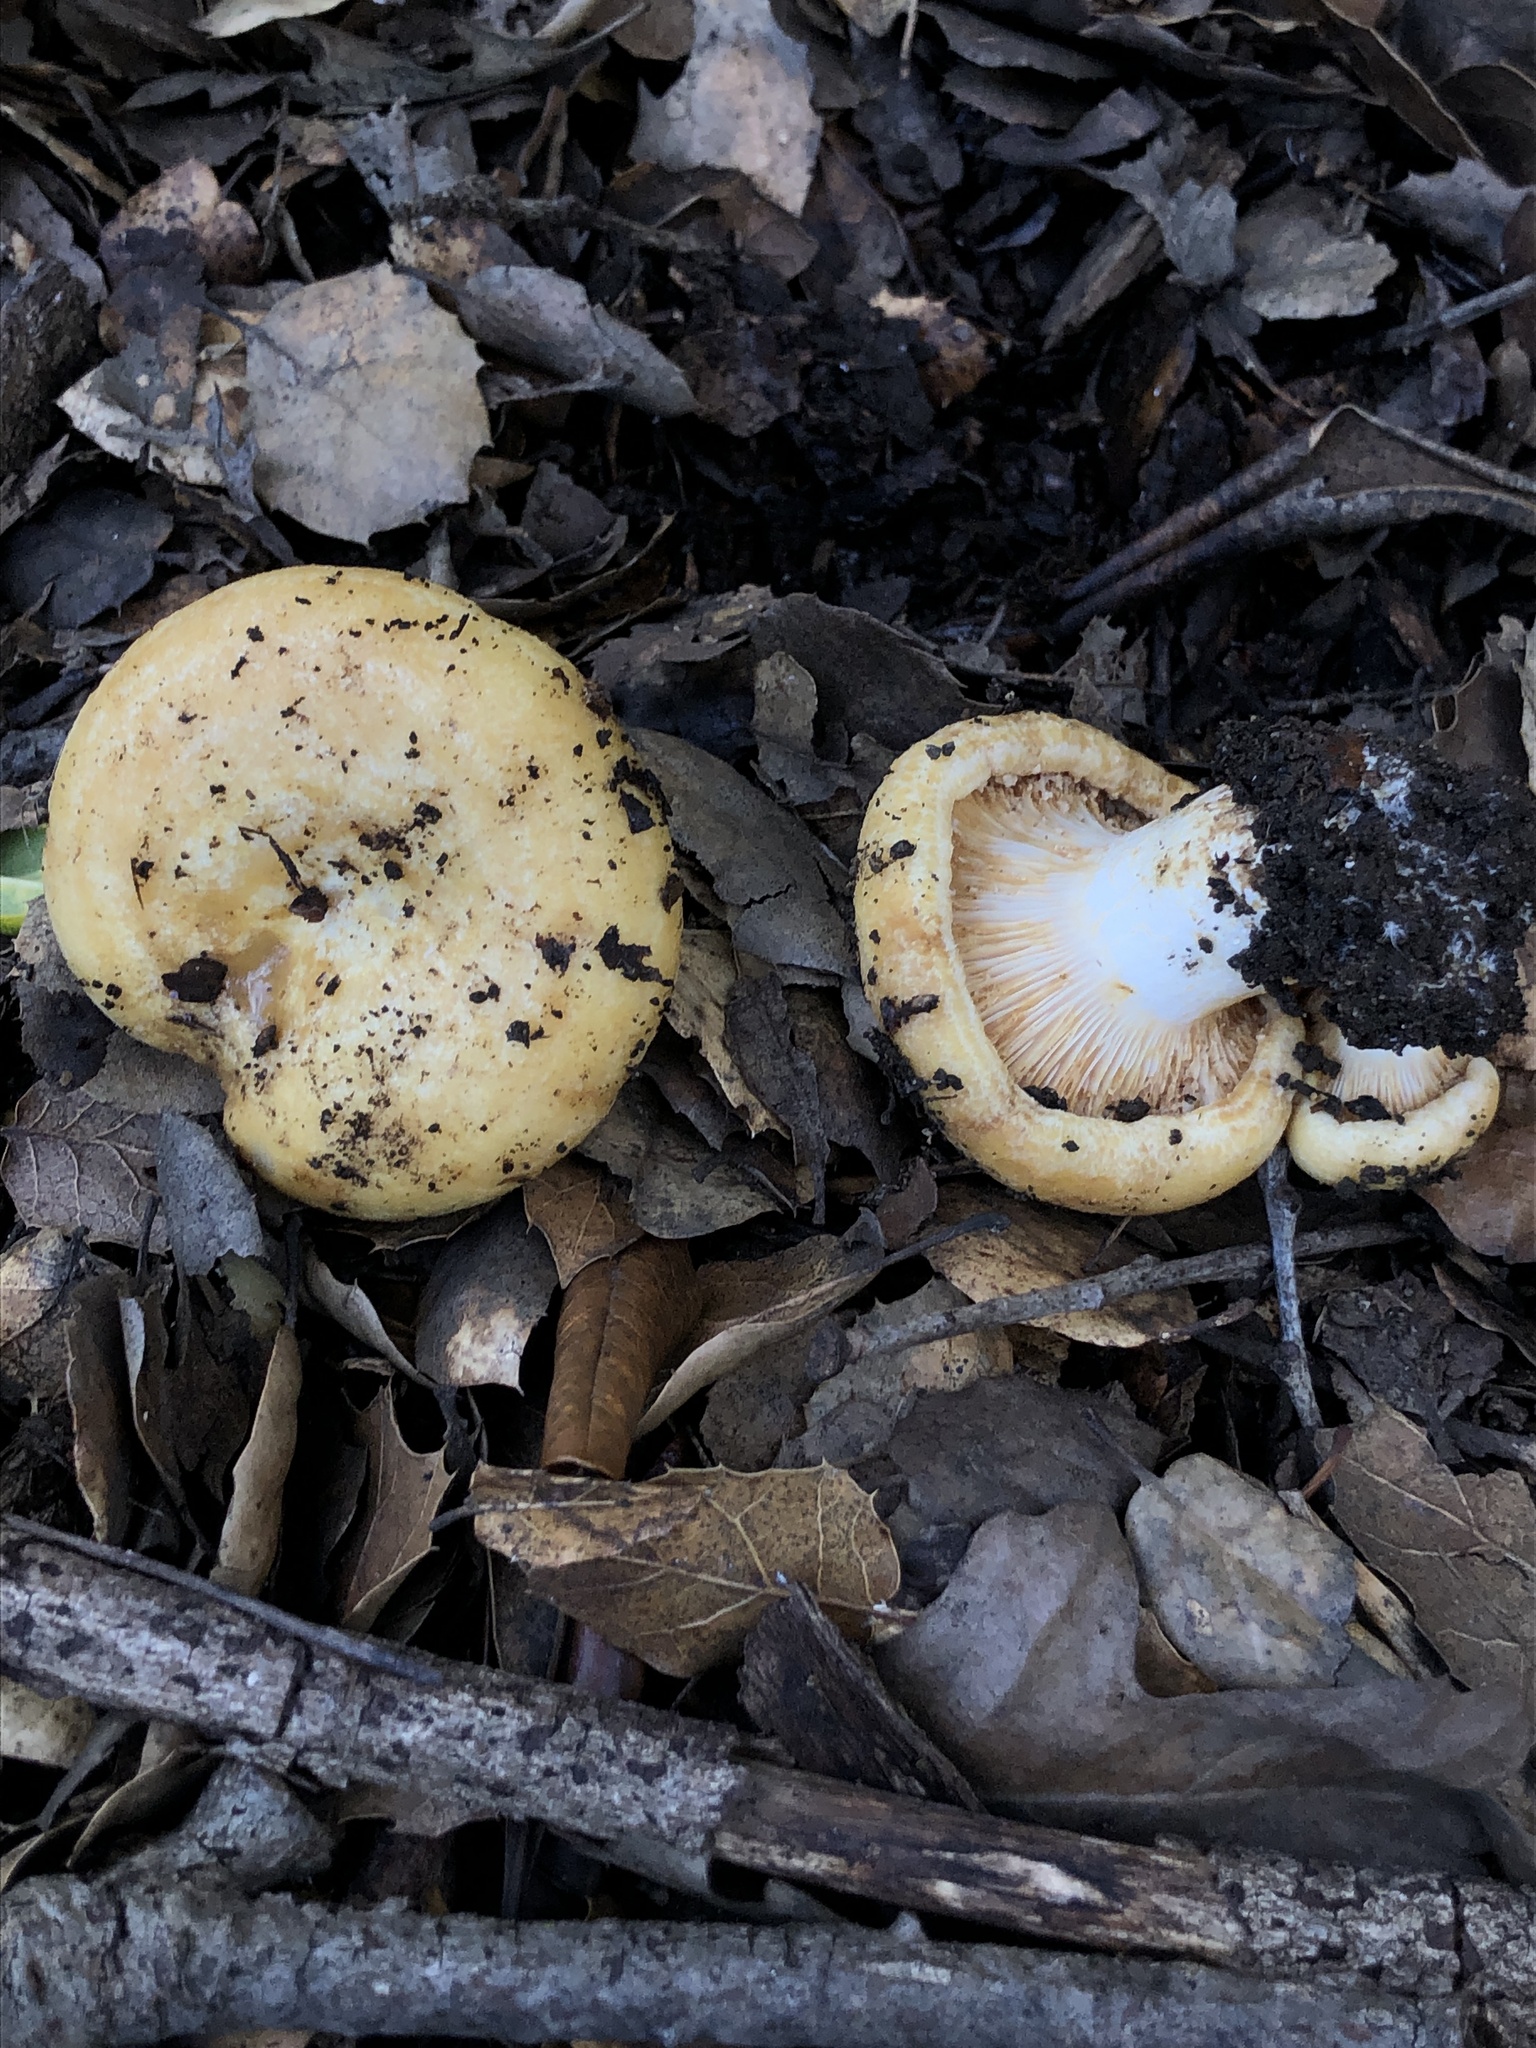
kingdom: Fungi
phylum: Basidiomycota
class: Agaricomycetes
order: Russulales
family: Russulaceae
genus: Lactarius
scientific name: Lactarius alnicola
